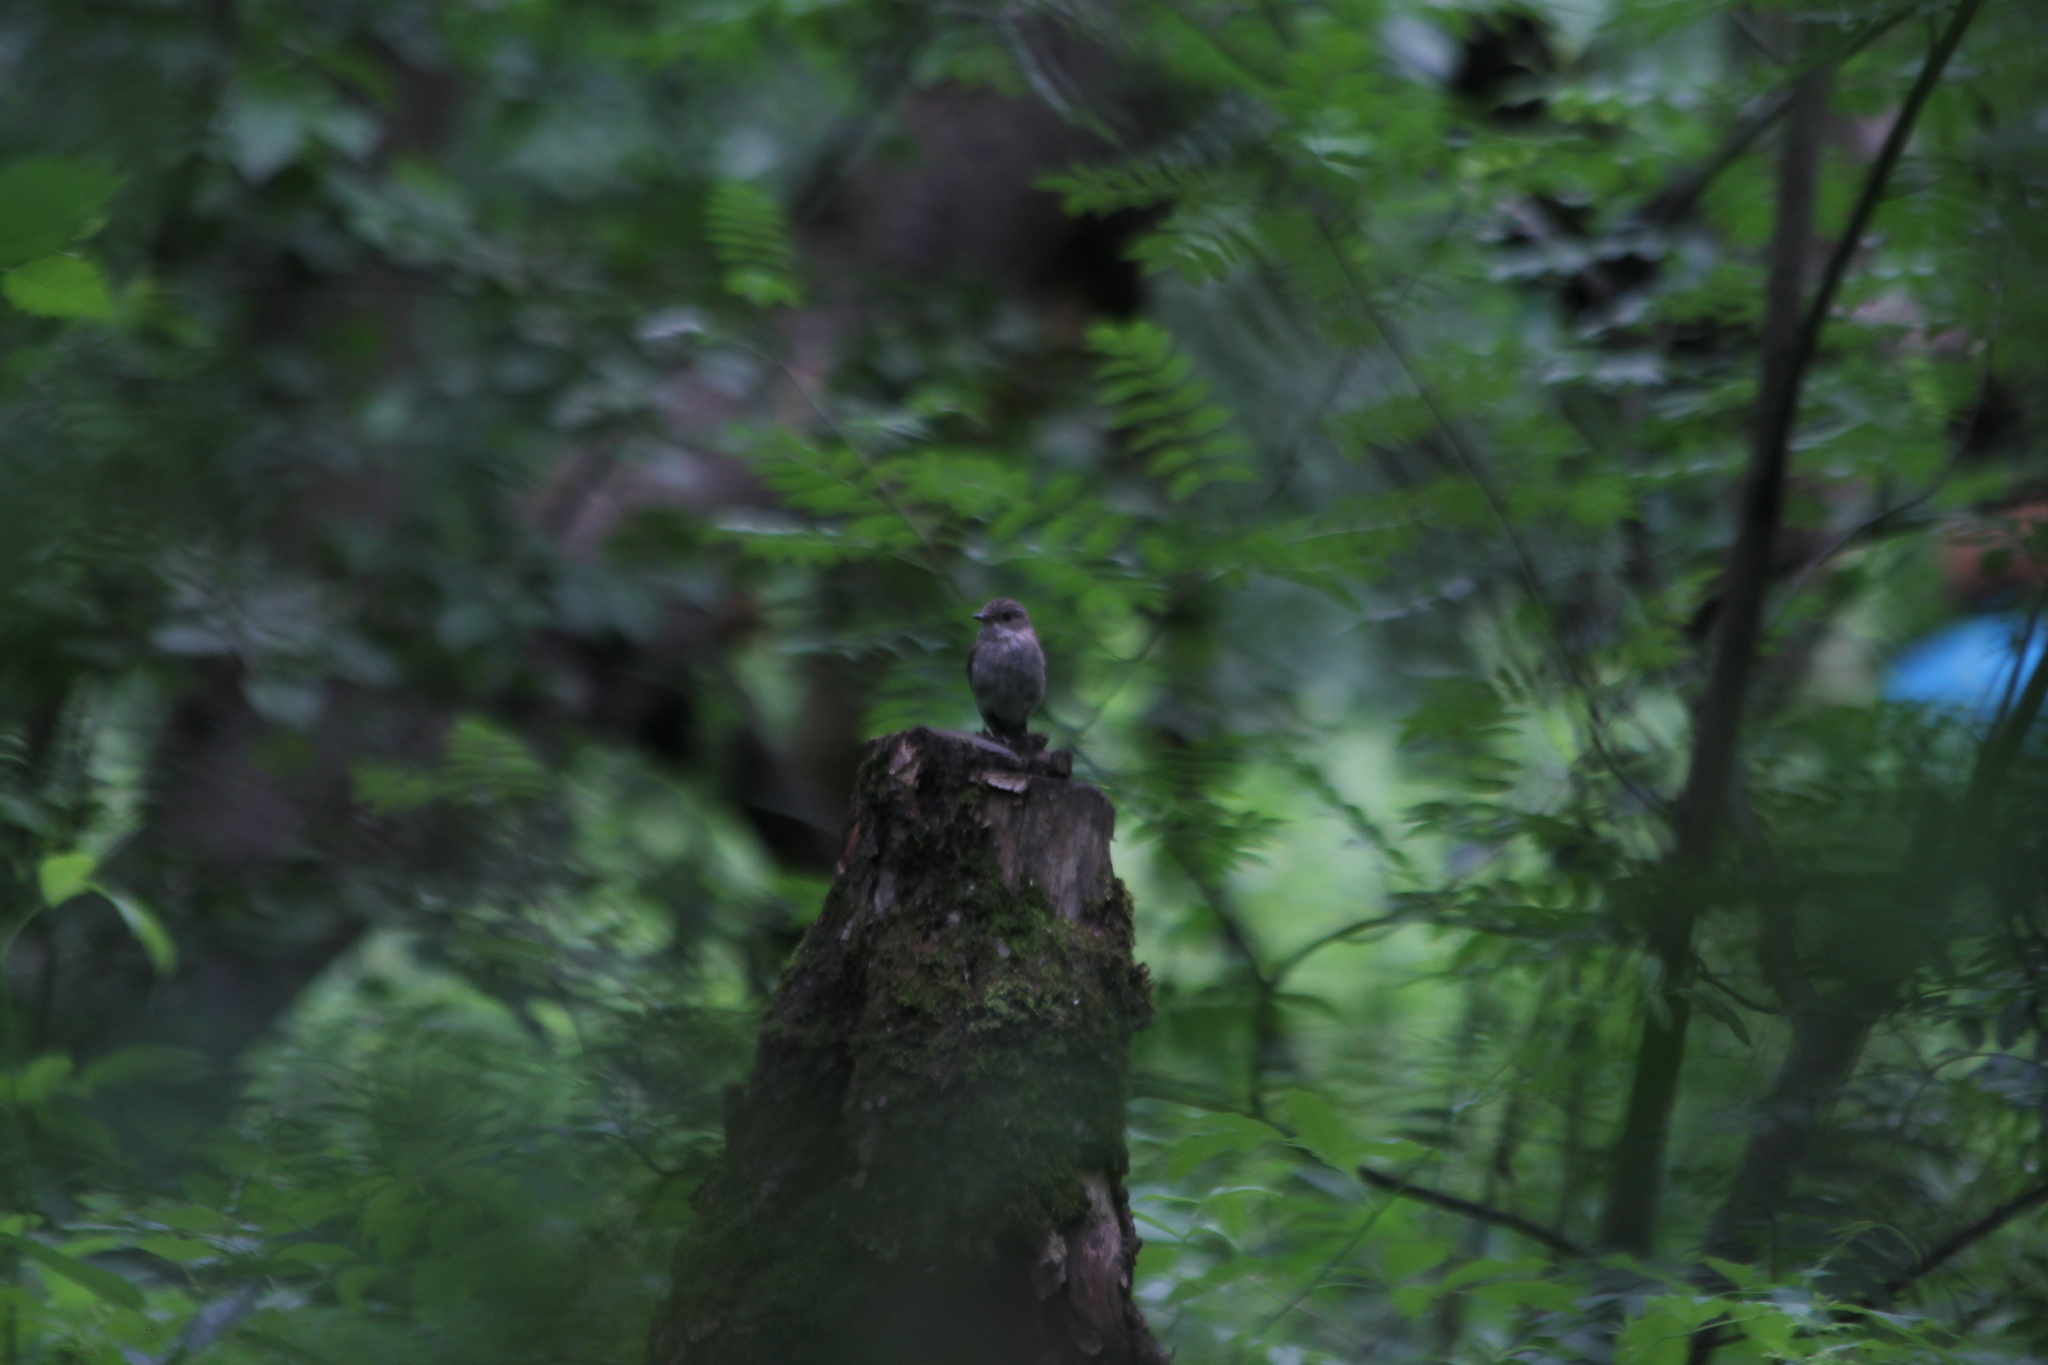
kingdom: Animalia
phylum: Chordata
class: Aves
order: Passeriformes
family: Muscicapidae
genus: Muscicapa
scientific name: Muscicapa striata
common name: Spotted flycatcher
